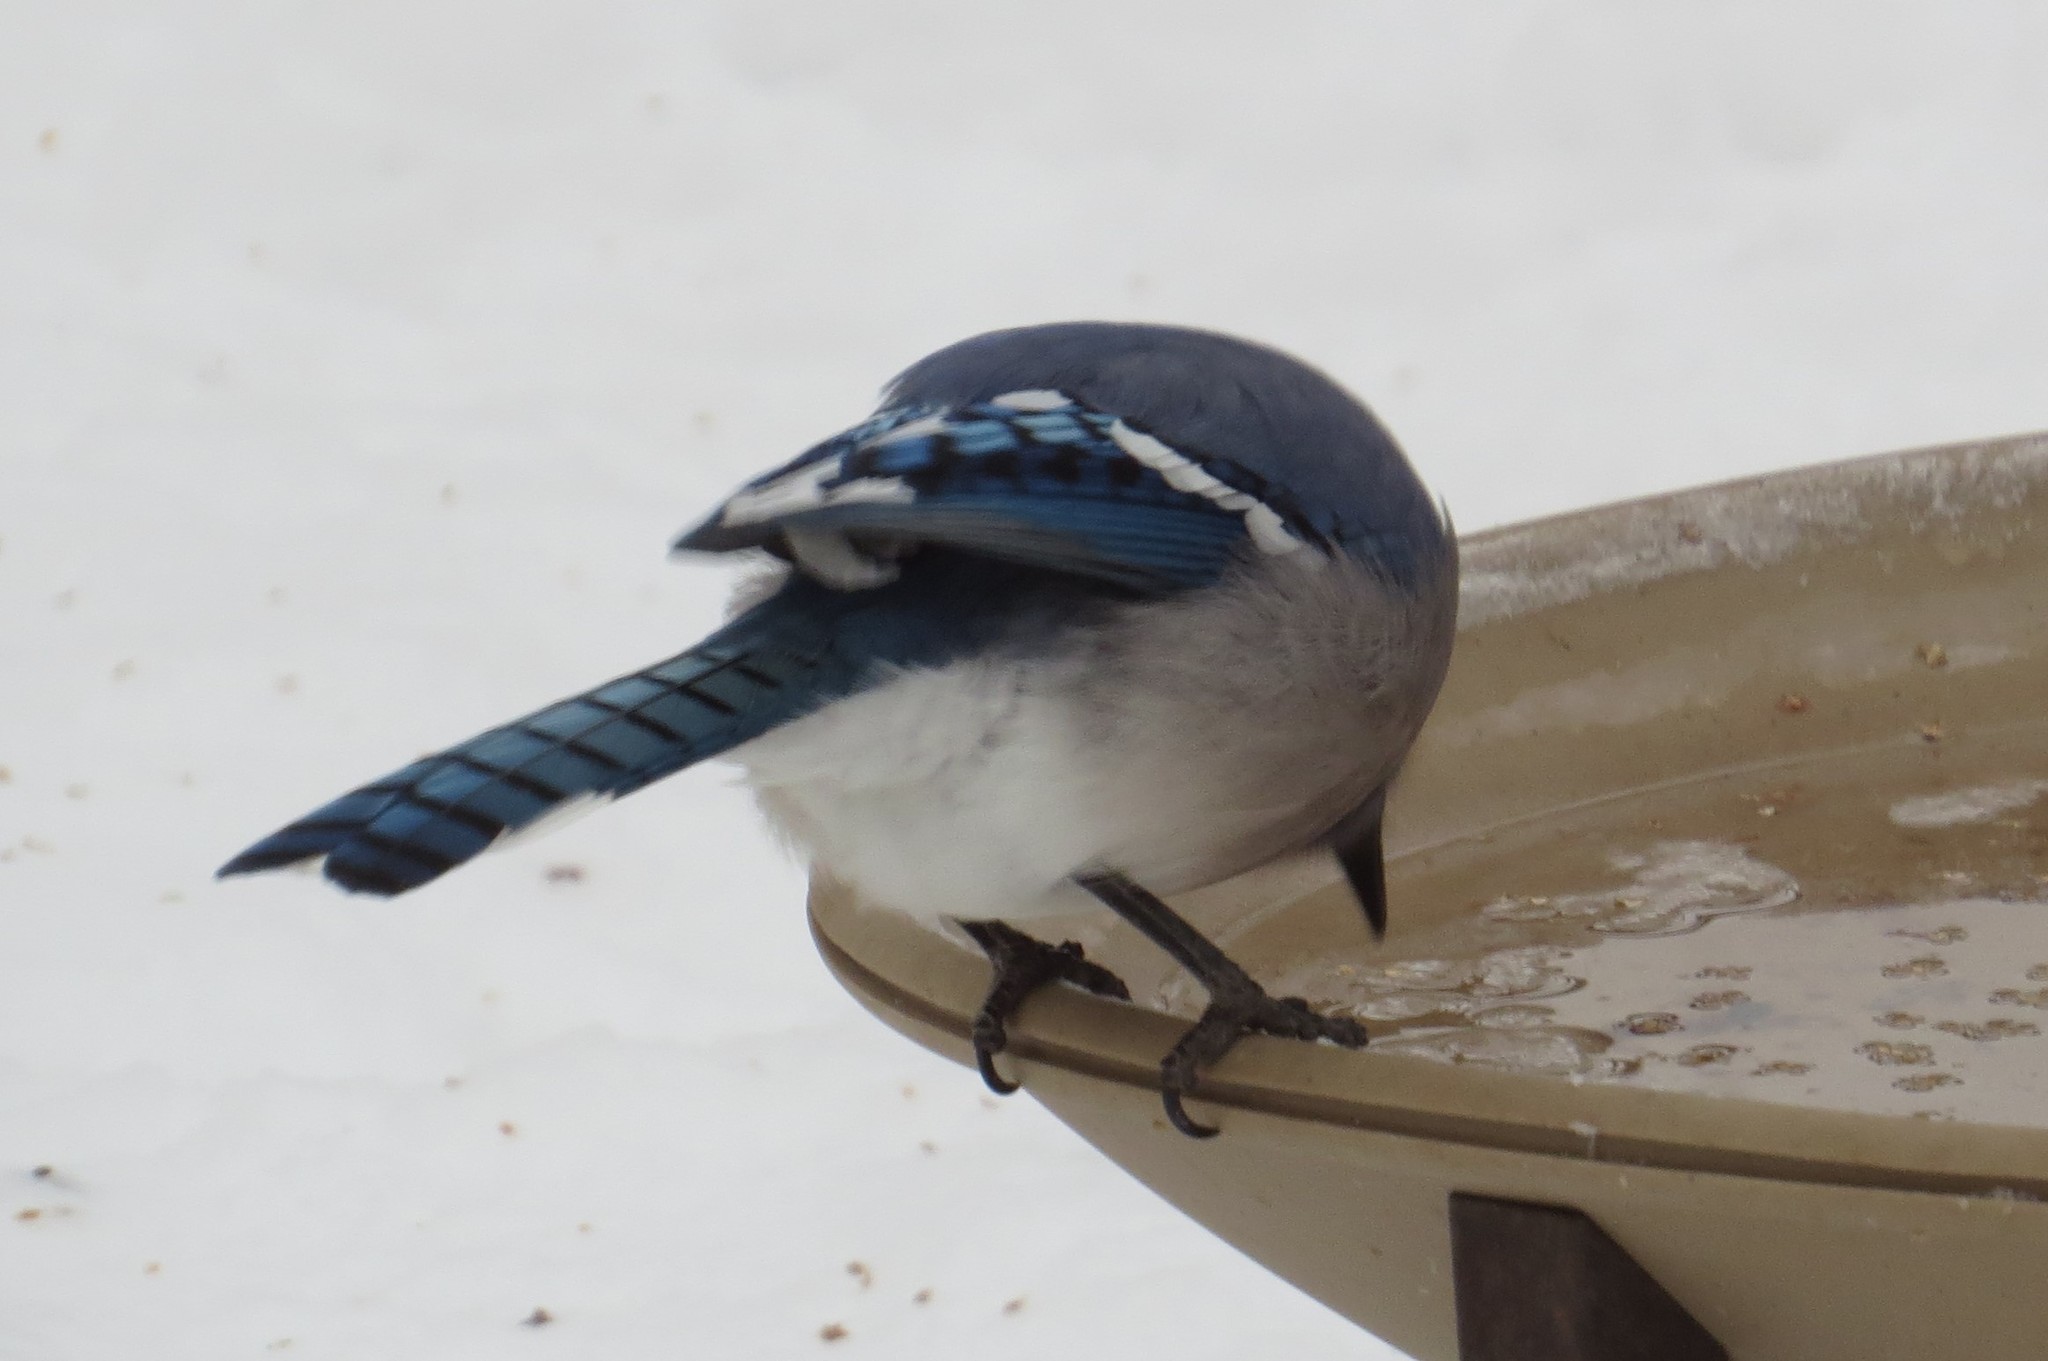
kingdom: Animalia
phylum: Chordata
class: Aves
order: Passeriformes
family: Corvidae
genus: Cyanocitta
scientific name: Cyanocitta cristata
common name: Blue jay
